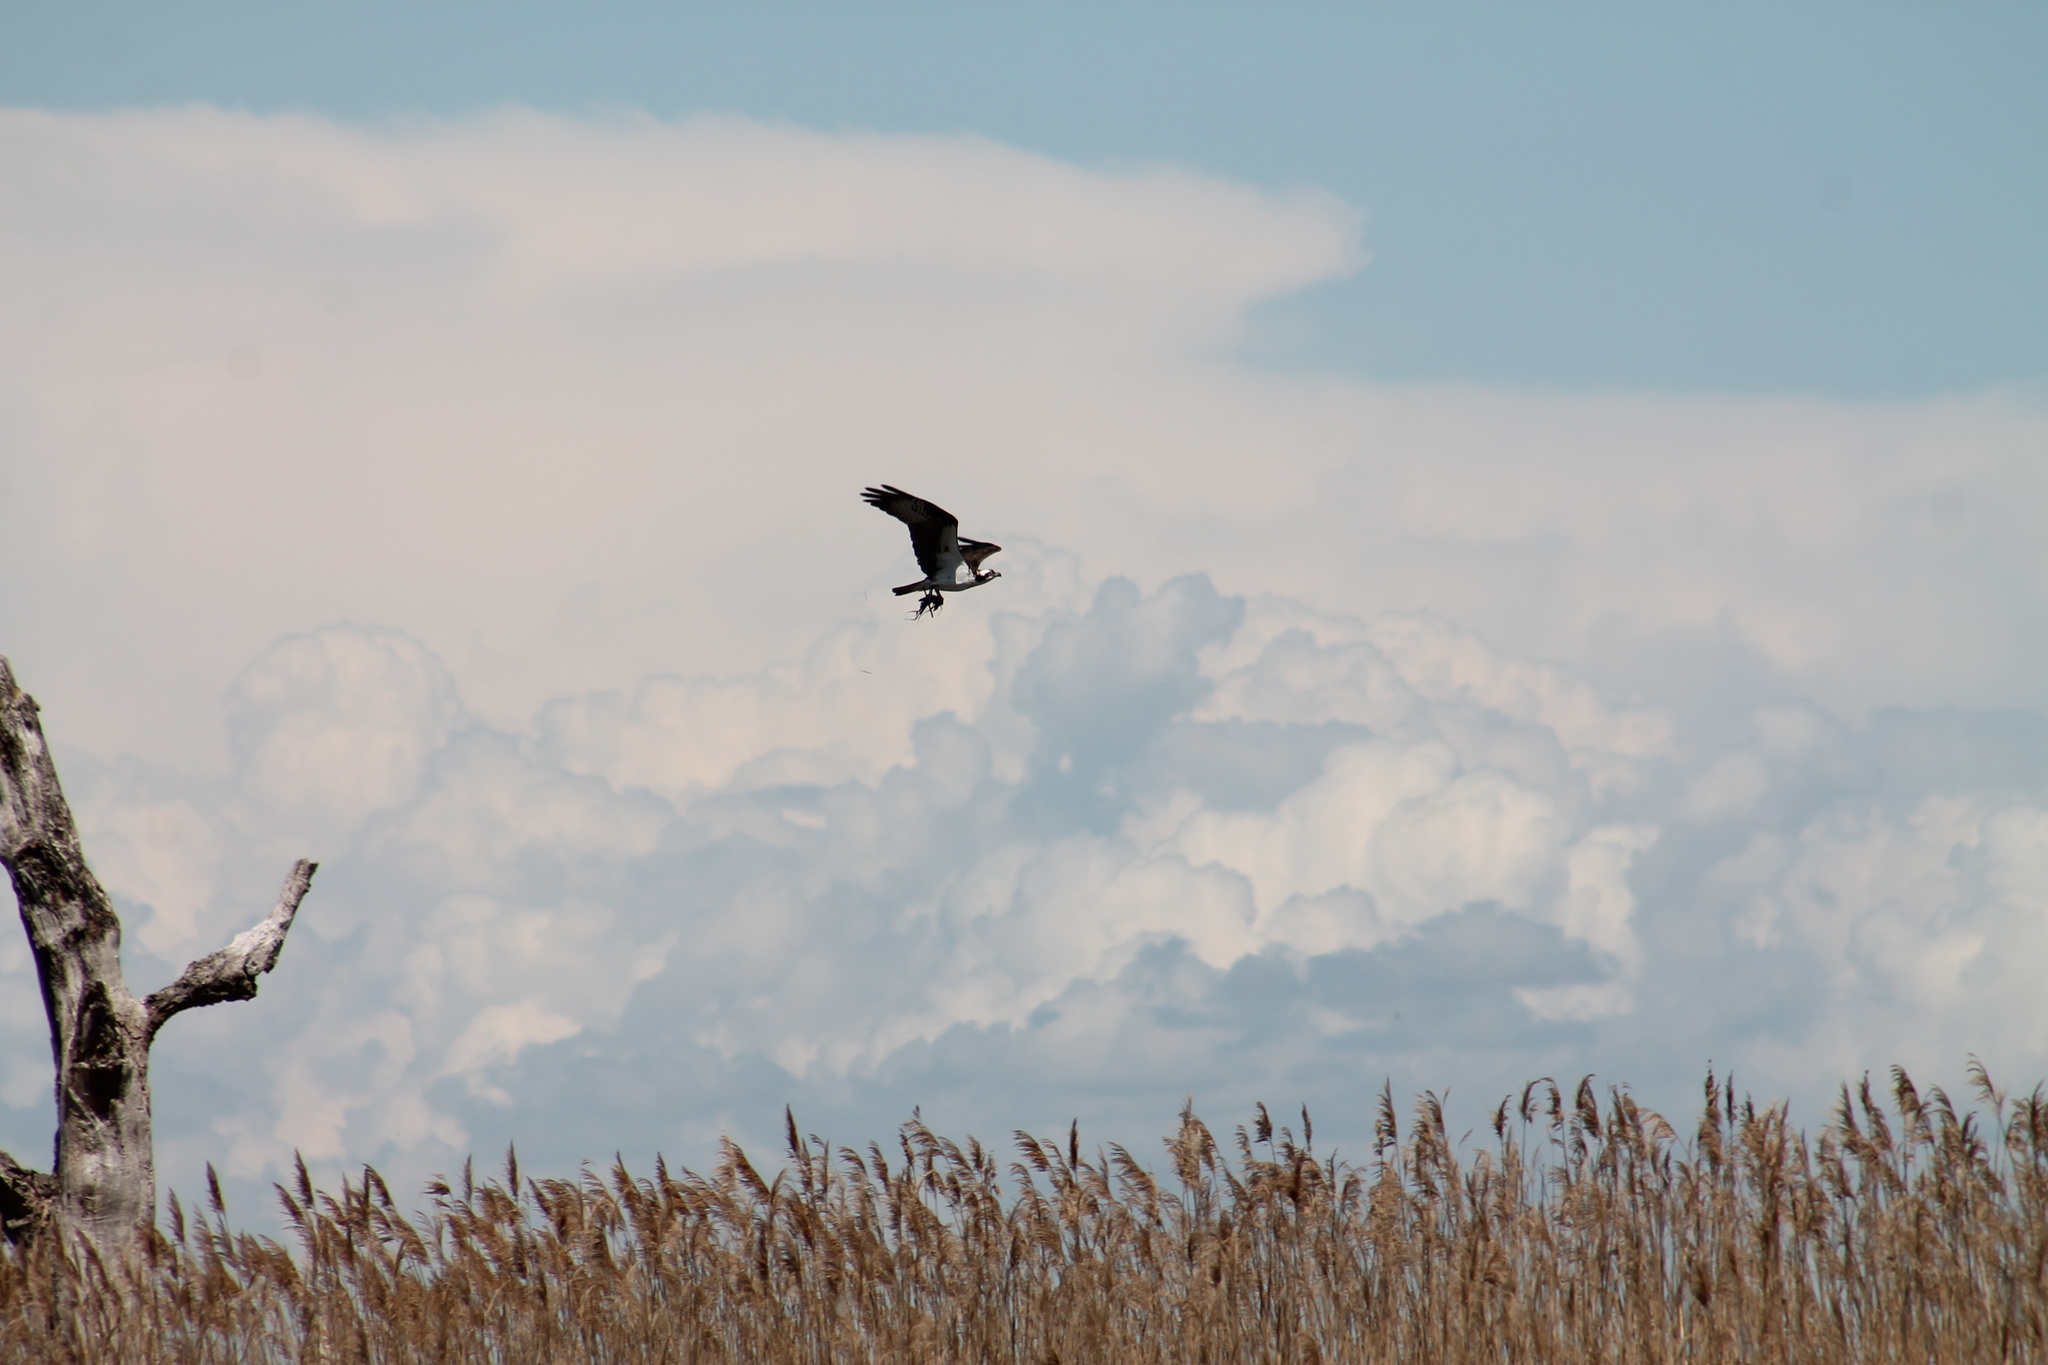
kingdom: Animalia
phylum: Chordata
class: Aves
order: Accipitriformes
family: Pandionidae
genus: Pandion
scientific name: Pandion haliaetus
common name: Osprey
